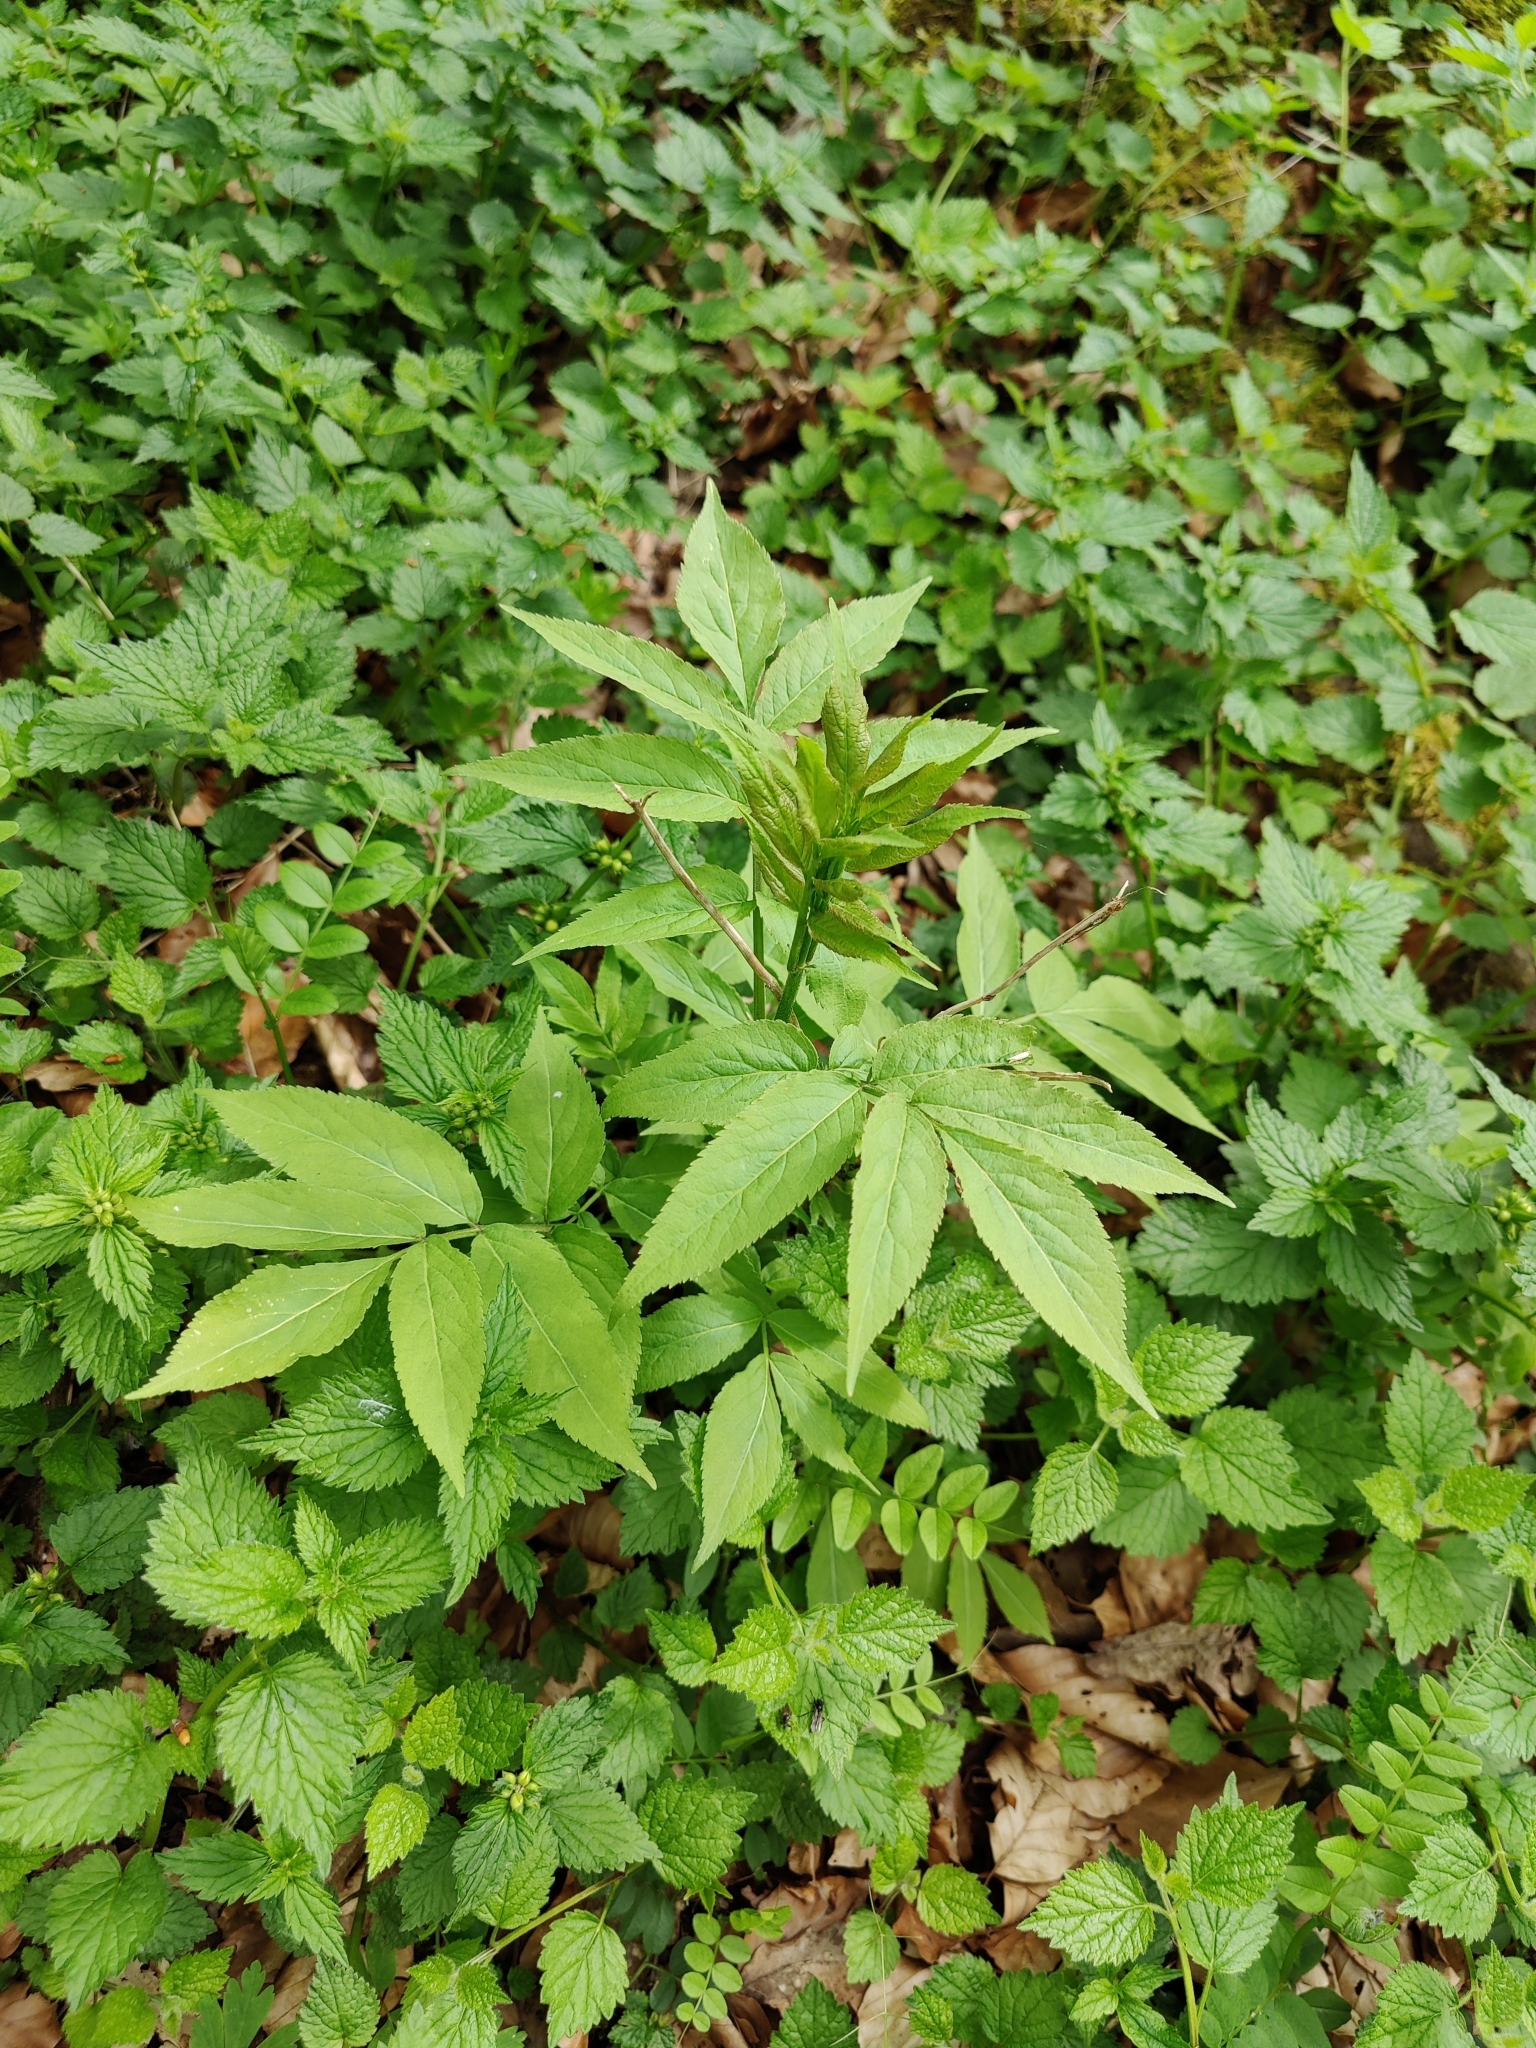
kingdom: Plantae
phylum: Tracheophyta
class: Magnoliopsida
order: Dipsacales
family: Viburnaceae
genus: Sambucus
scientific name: Sambucus nigra
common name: Elder
